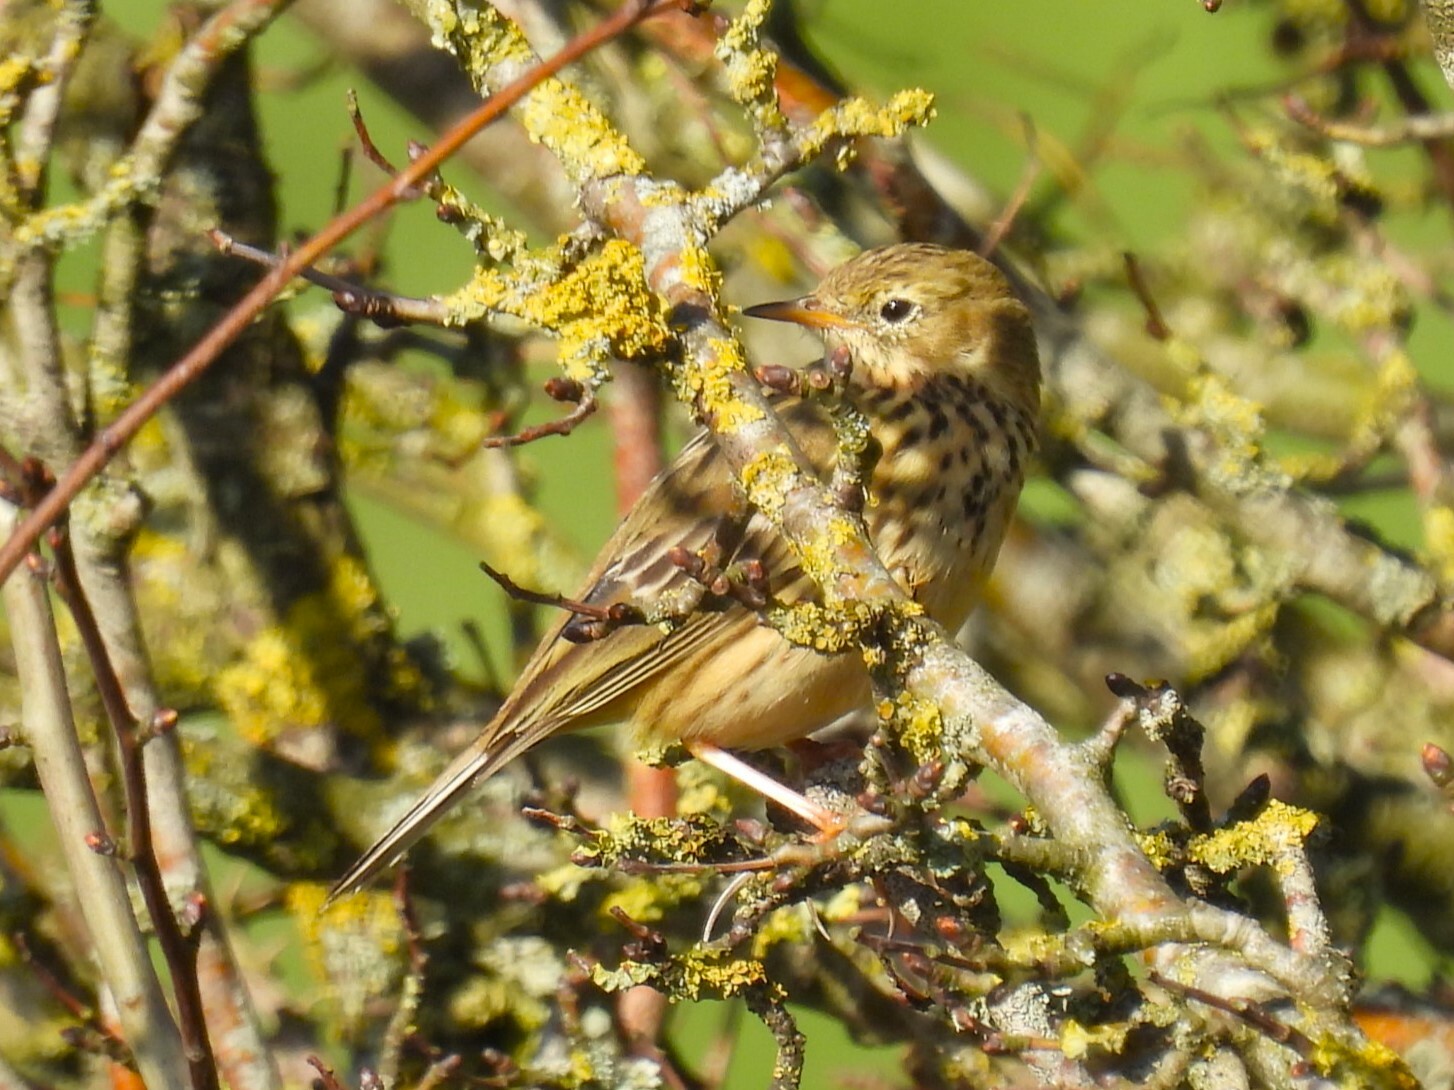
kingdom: Animalia
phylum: Chordata
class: Aves
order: Passeriformes
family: Motacillidae
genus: Anthus
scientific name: Anthus pratensis
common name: Meadow pipit
